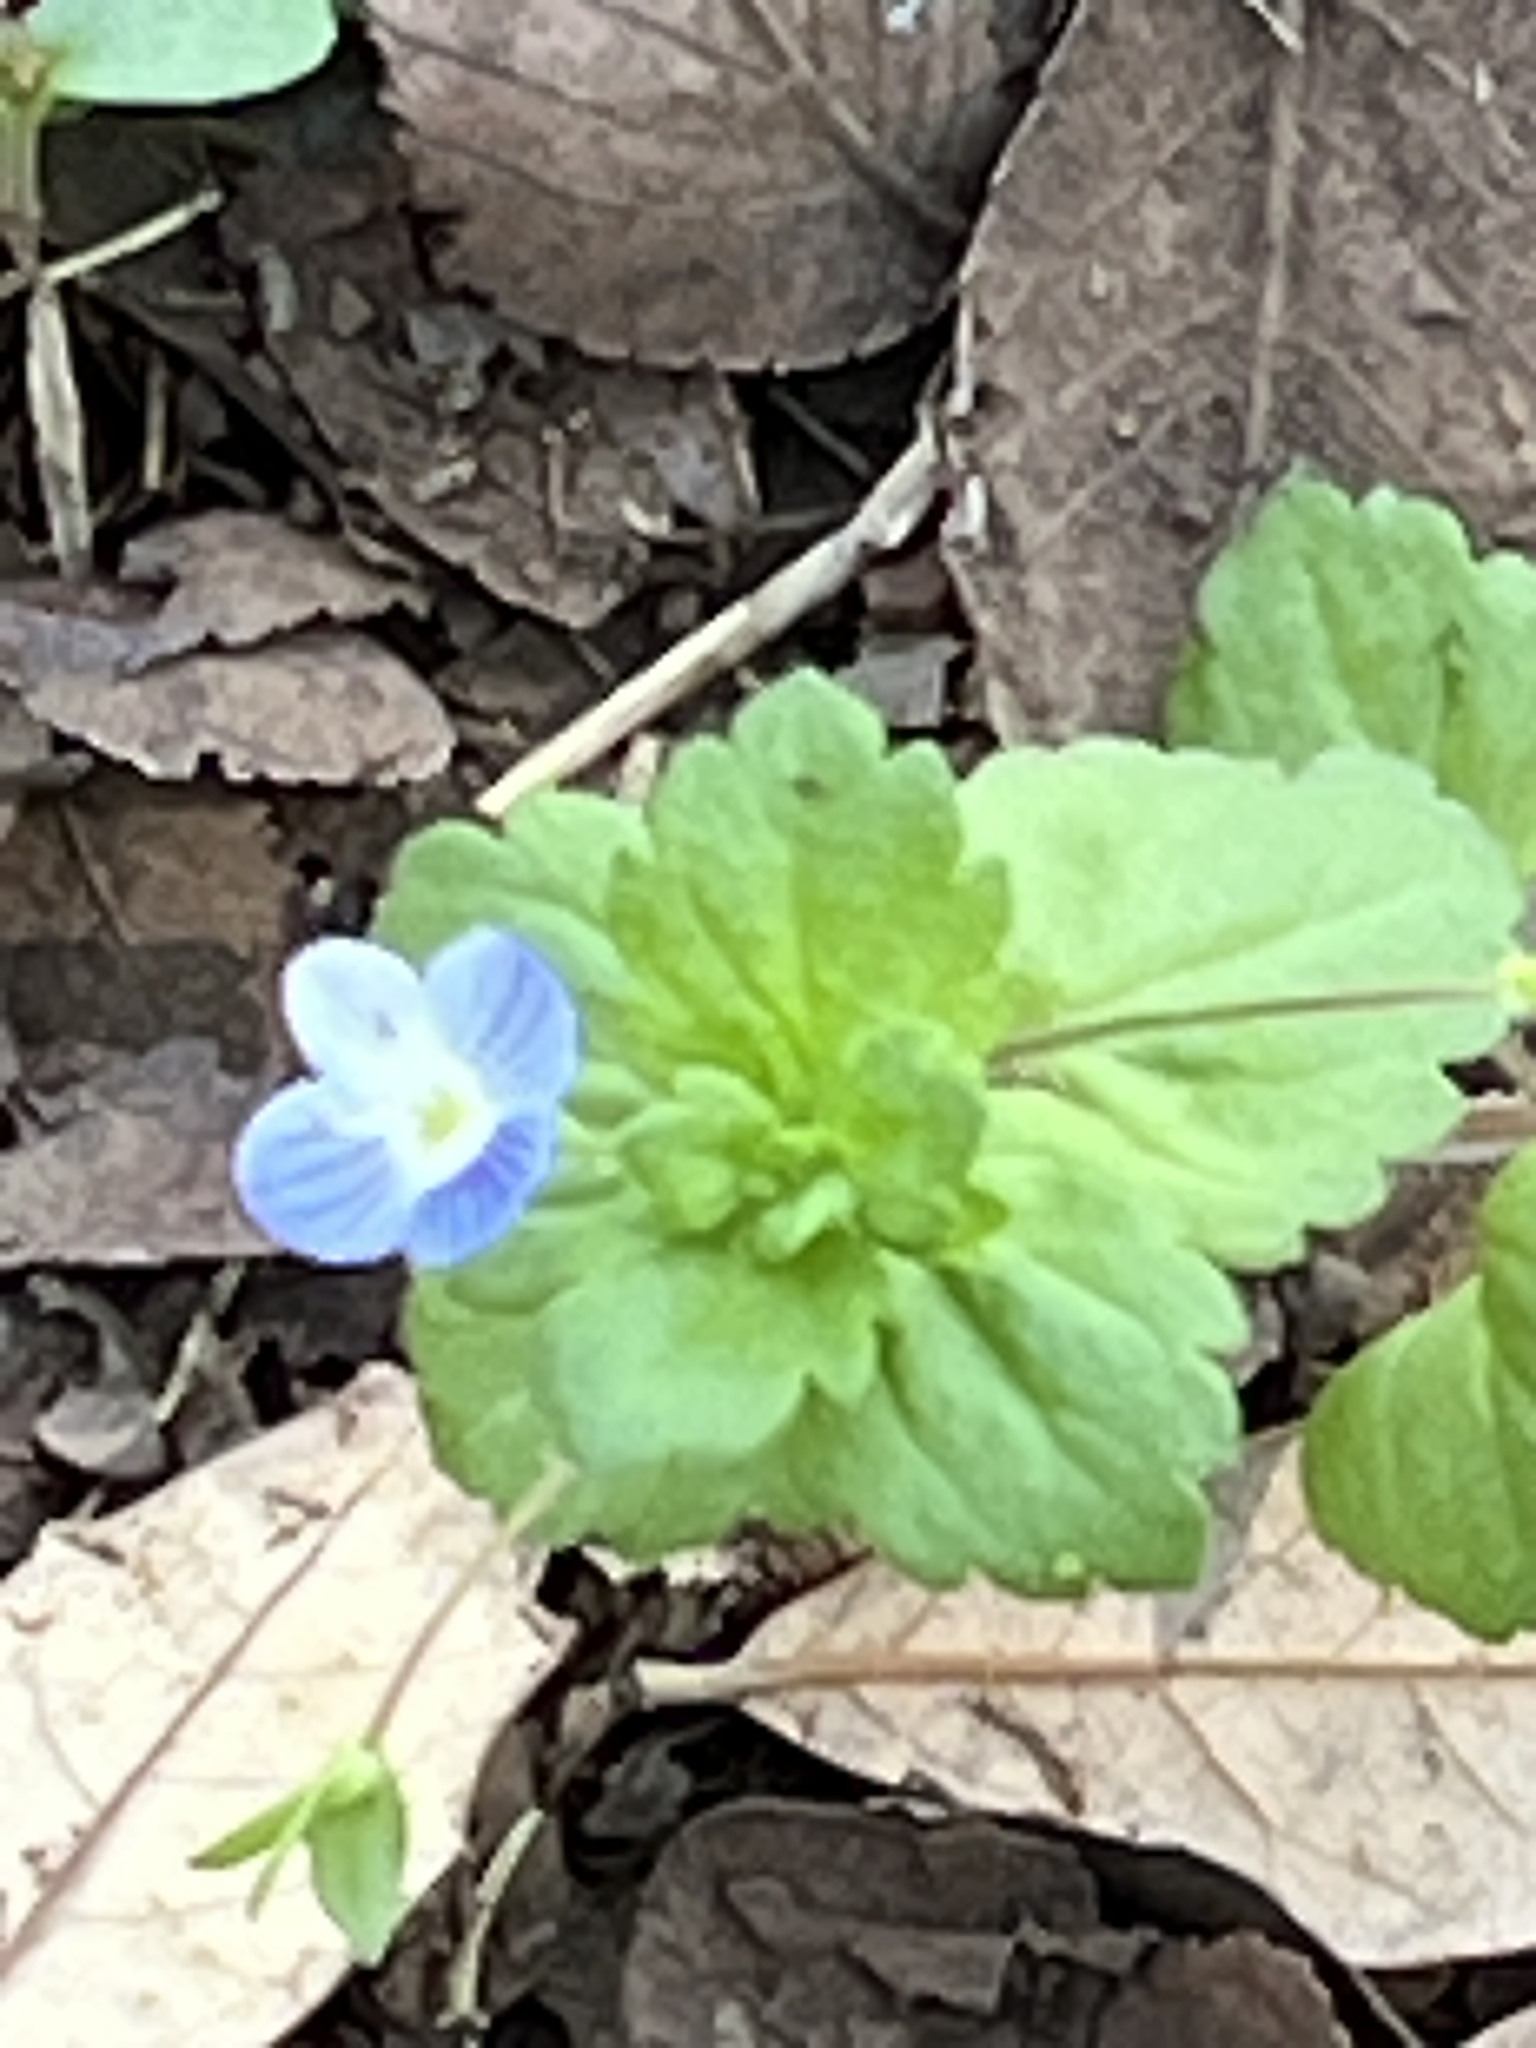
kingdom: Plantae
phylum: Tracheophyta
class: Magnoliopsida
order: Lamiales
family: Plantaginaceae
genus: Veronica
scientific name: Veronica persica
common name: Common field-speedwell
